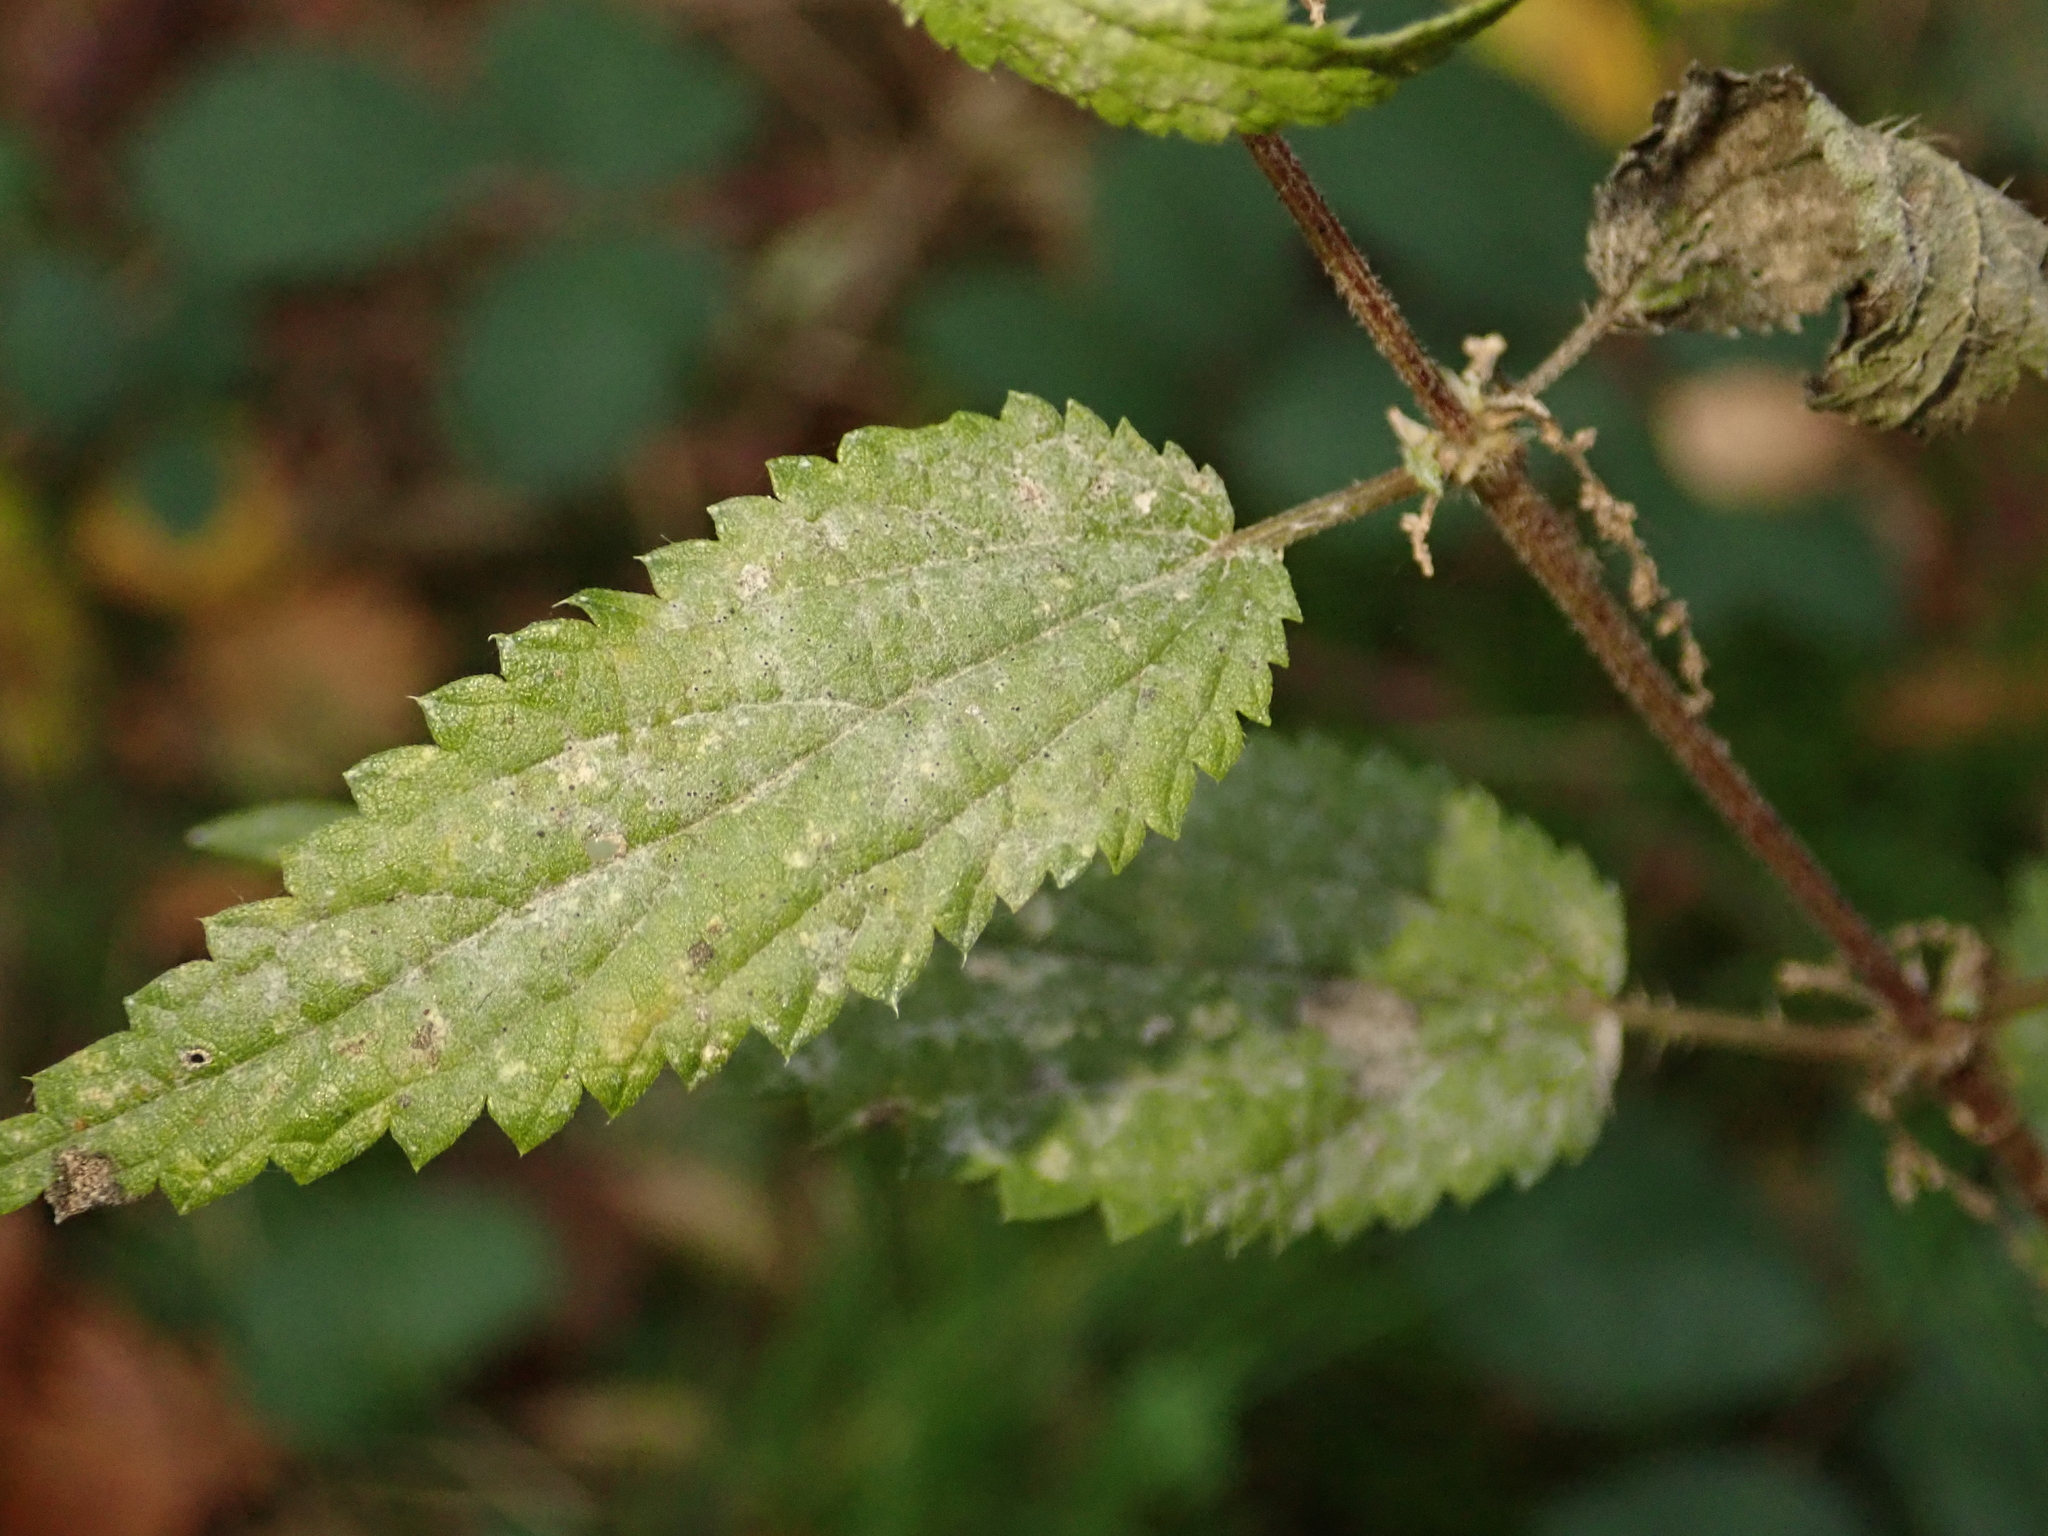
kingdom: Fungi
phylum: Ascomycota
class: Leotiomycetes
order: Helotiales
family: Erysiphaceae
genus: Erysiphe
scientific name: Erysiphe urticae
